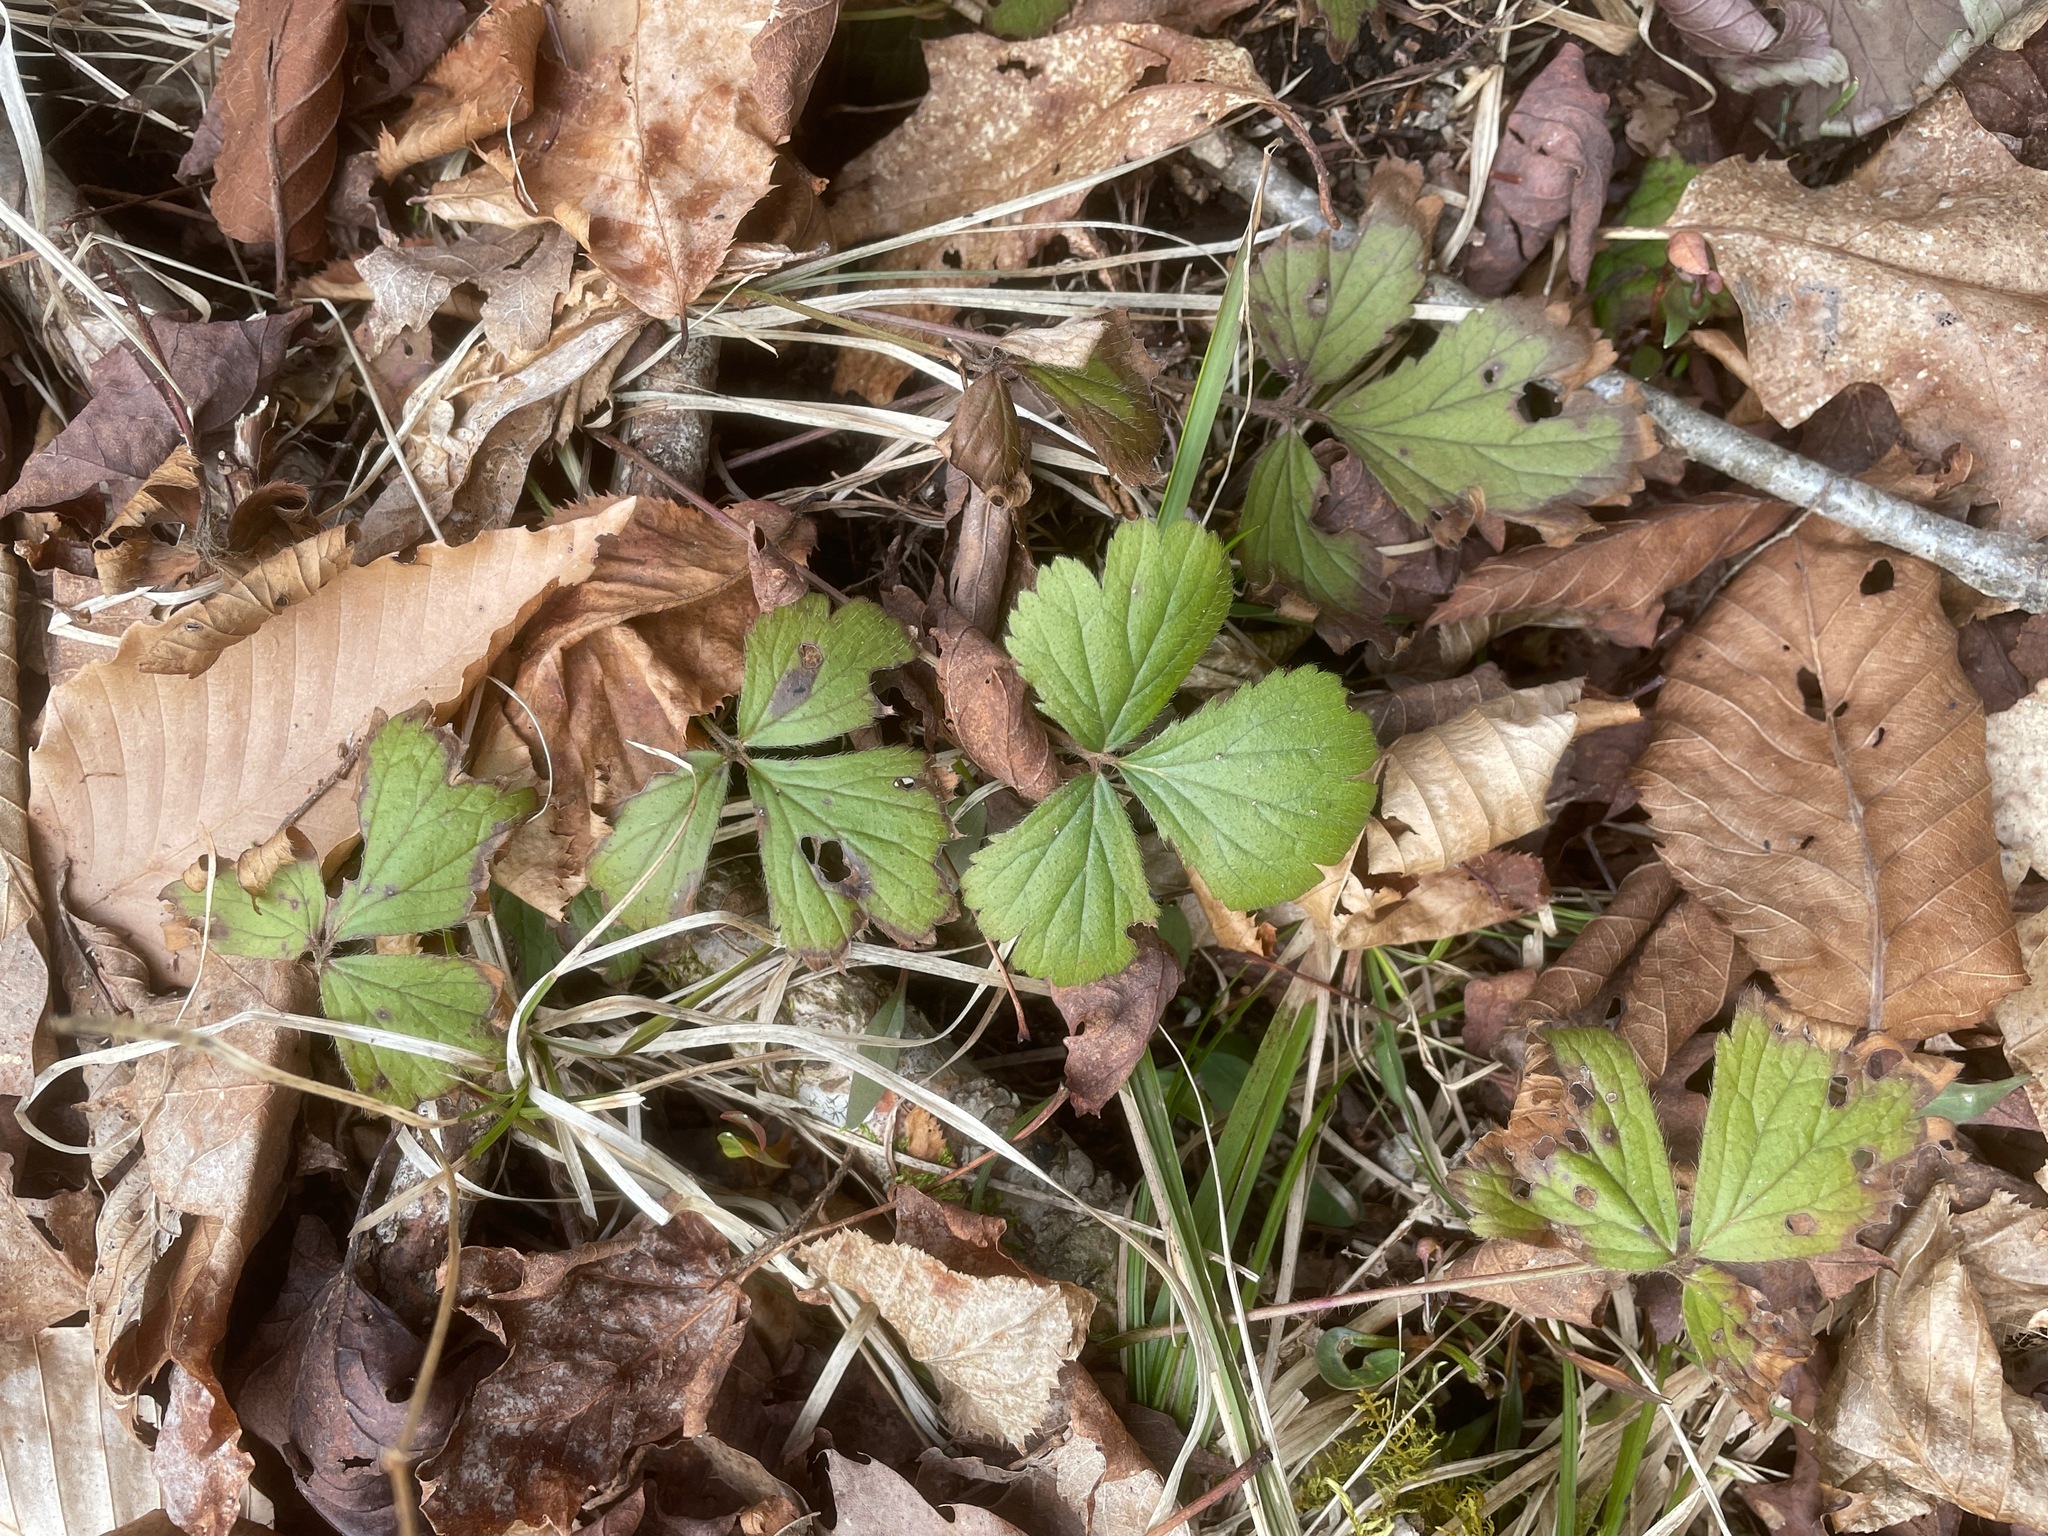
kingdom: Plantae
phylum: Tracheophyta
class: Magnoliopsida
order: Rosales
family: Rosaceae
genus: Geum
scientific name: Geum fragarioides
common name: Appalachian barren strawberry
